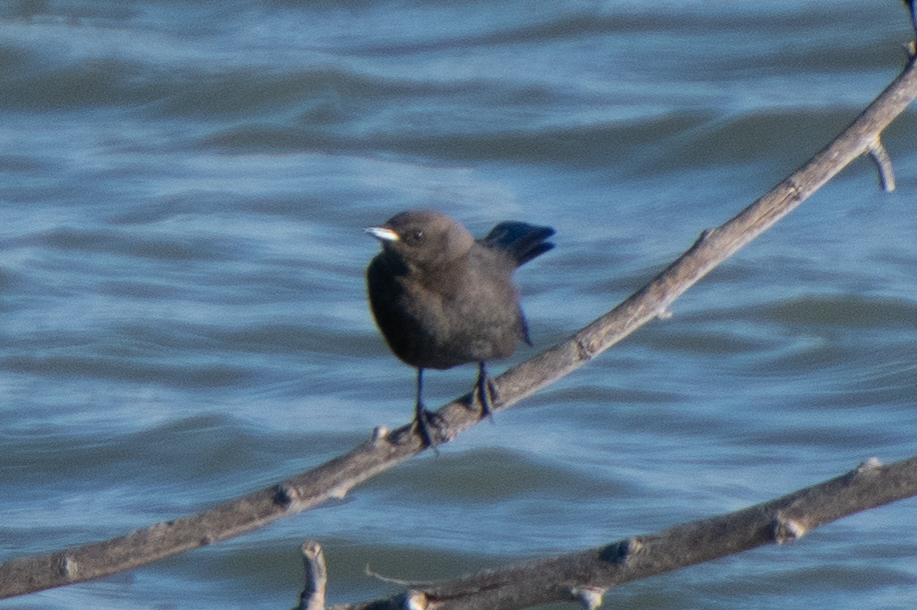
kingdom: Animalia
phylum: Chordata
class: Aves
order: Passeriformes
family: Icteridae
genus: Euphagus
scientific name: Euphagus cyanocephalus
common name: Brewer's blackbird
